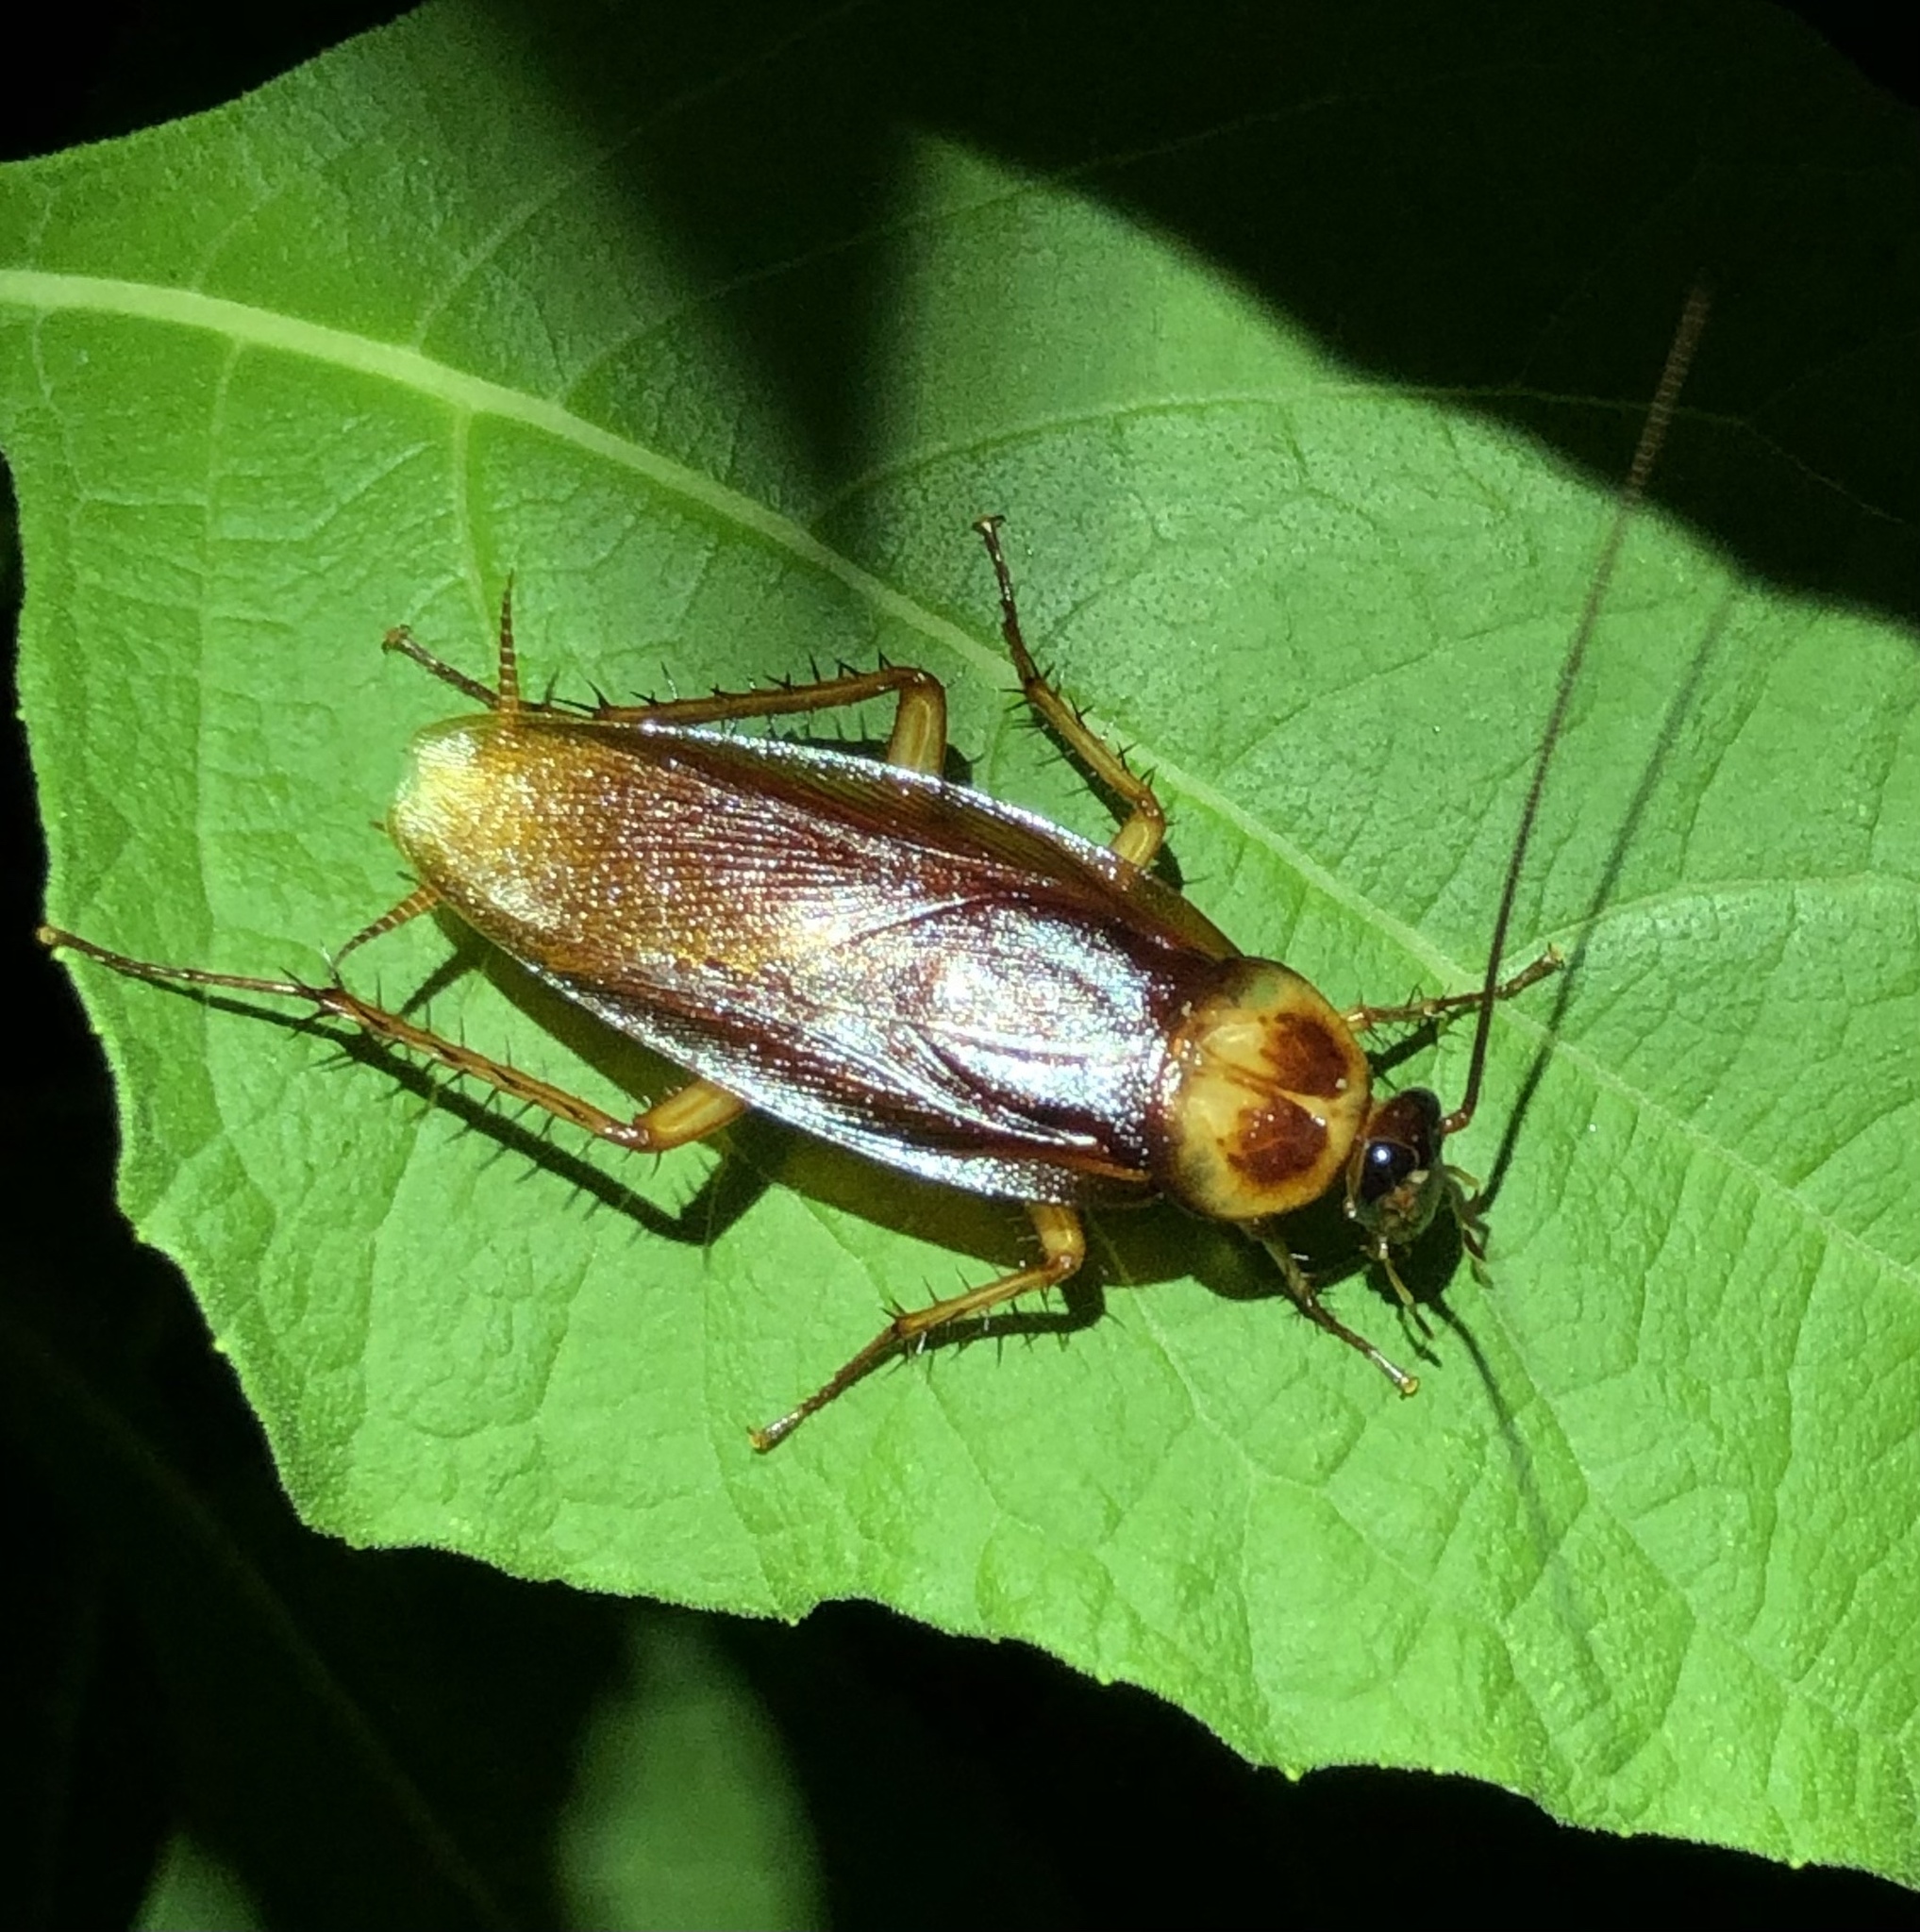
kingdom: Animalia
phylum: Arthropoda
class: Insecta
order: Blattodea
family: Blattidae
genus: Periplaneta
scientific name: Periplaneta americana
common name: American cockroach
